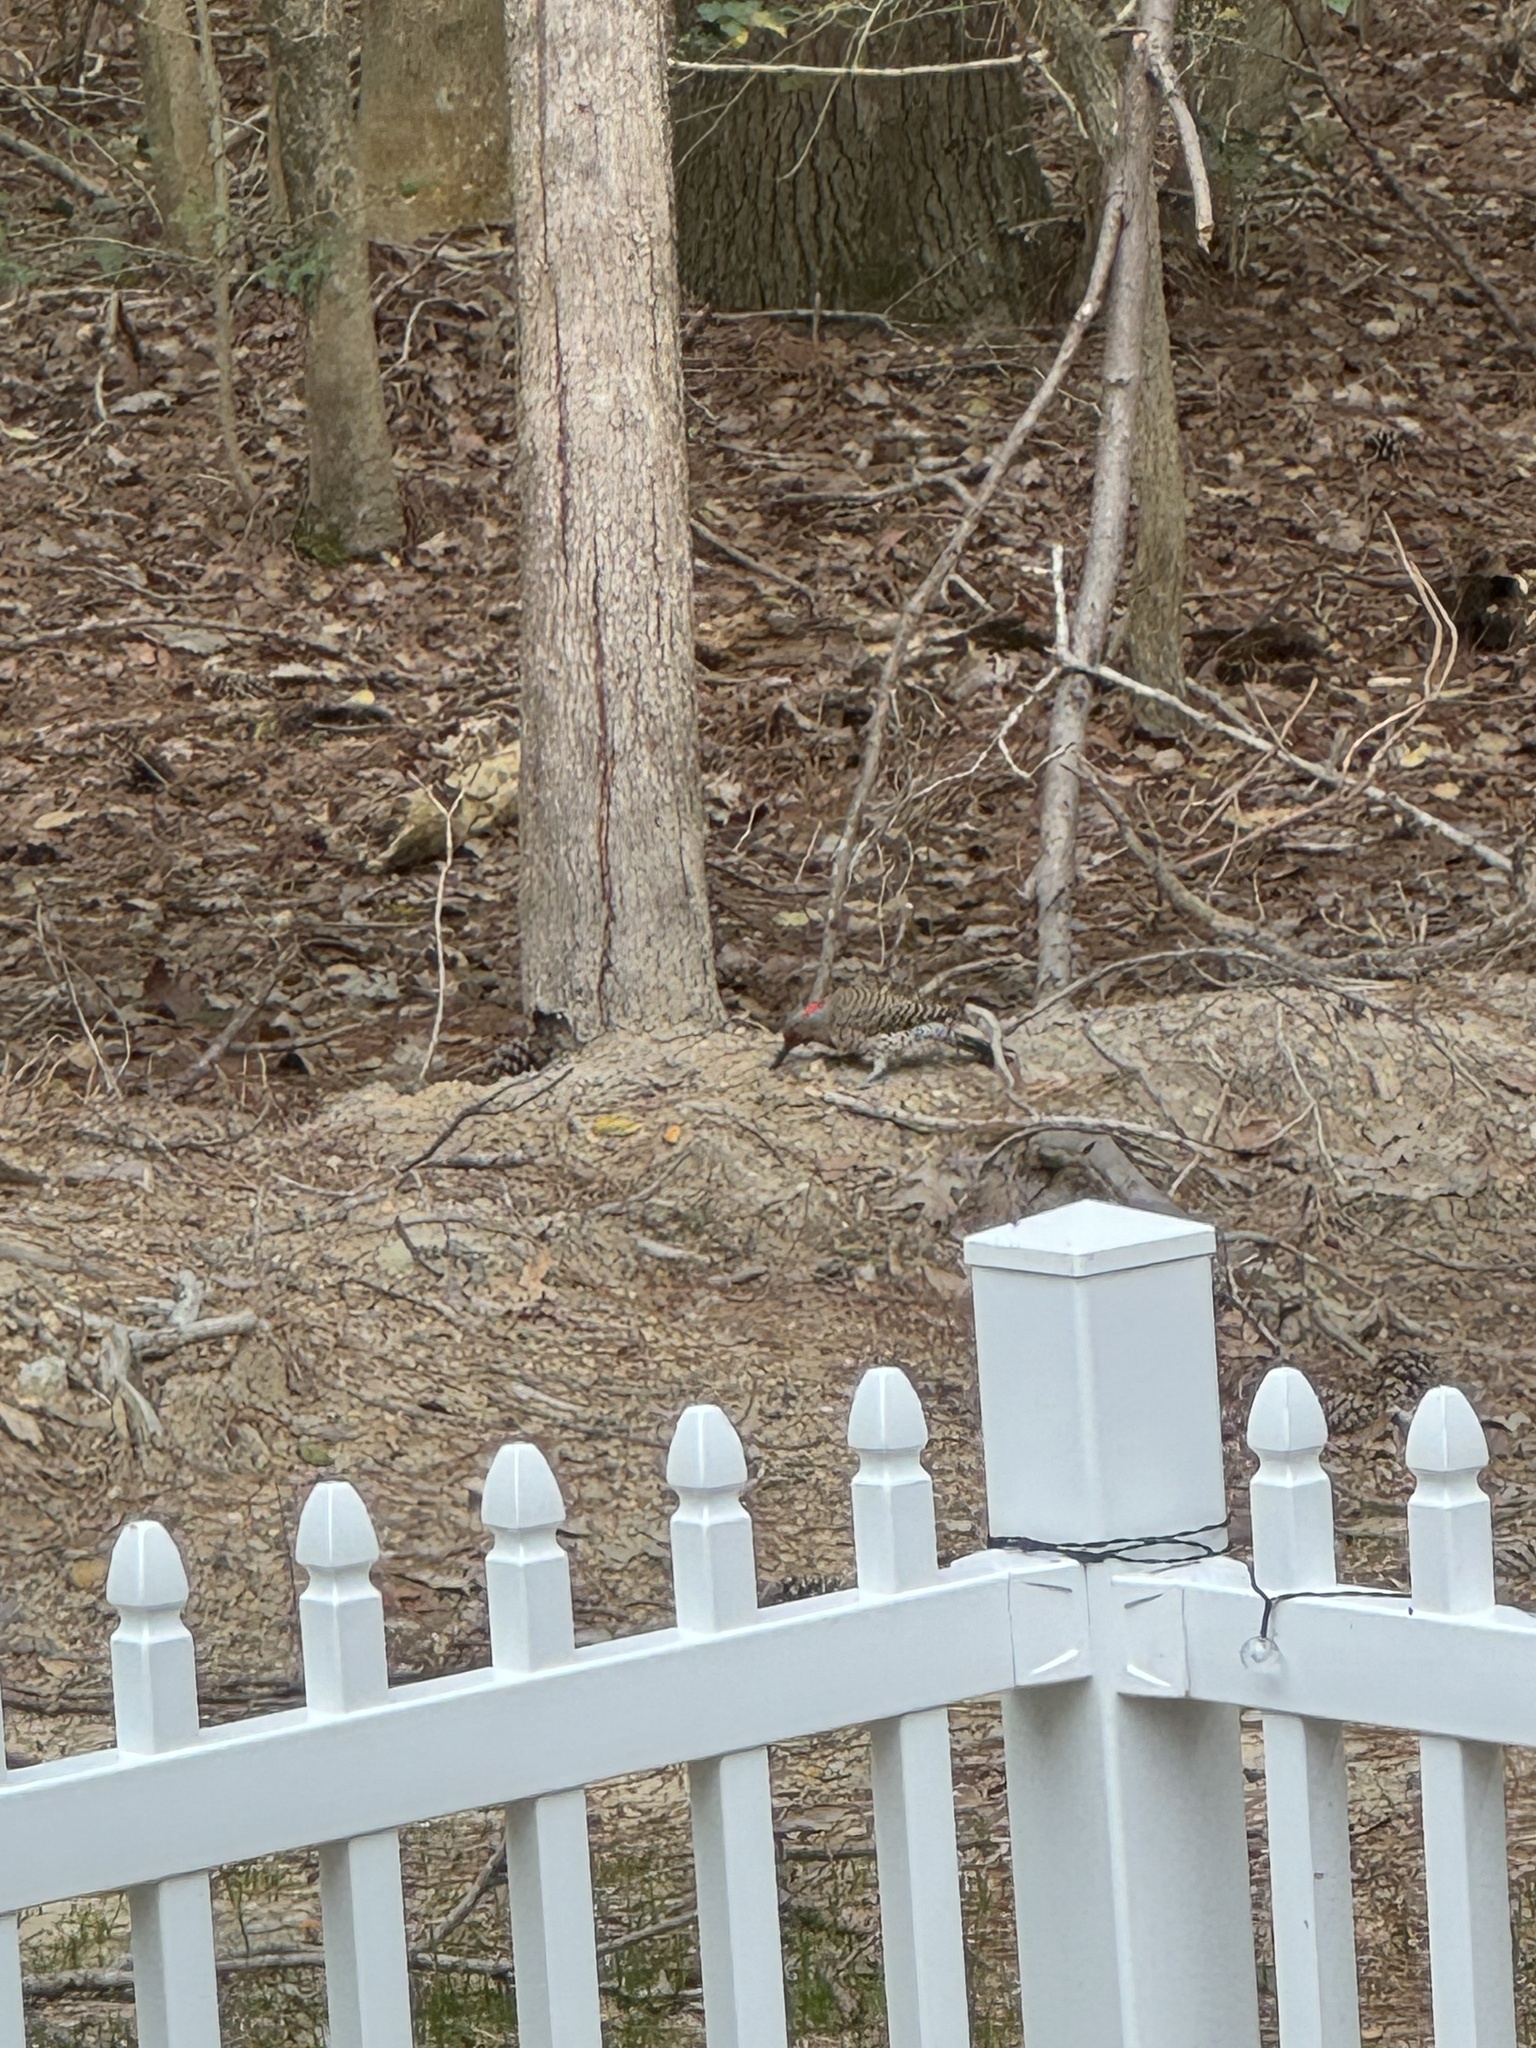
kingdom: Animalia
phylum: Chordata
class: Aves
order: Piciformes
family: Picidae
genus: Colaptes
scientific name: Colaptes auratus
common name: Northern flicker
